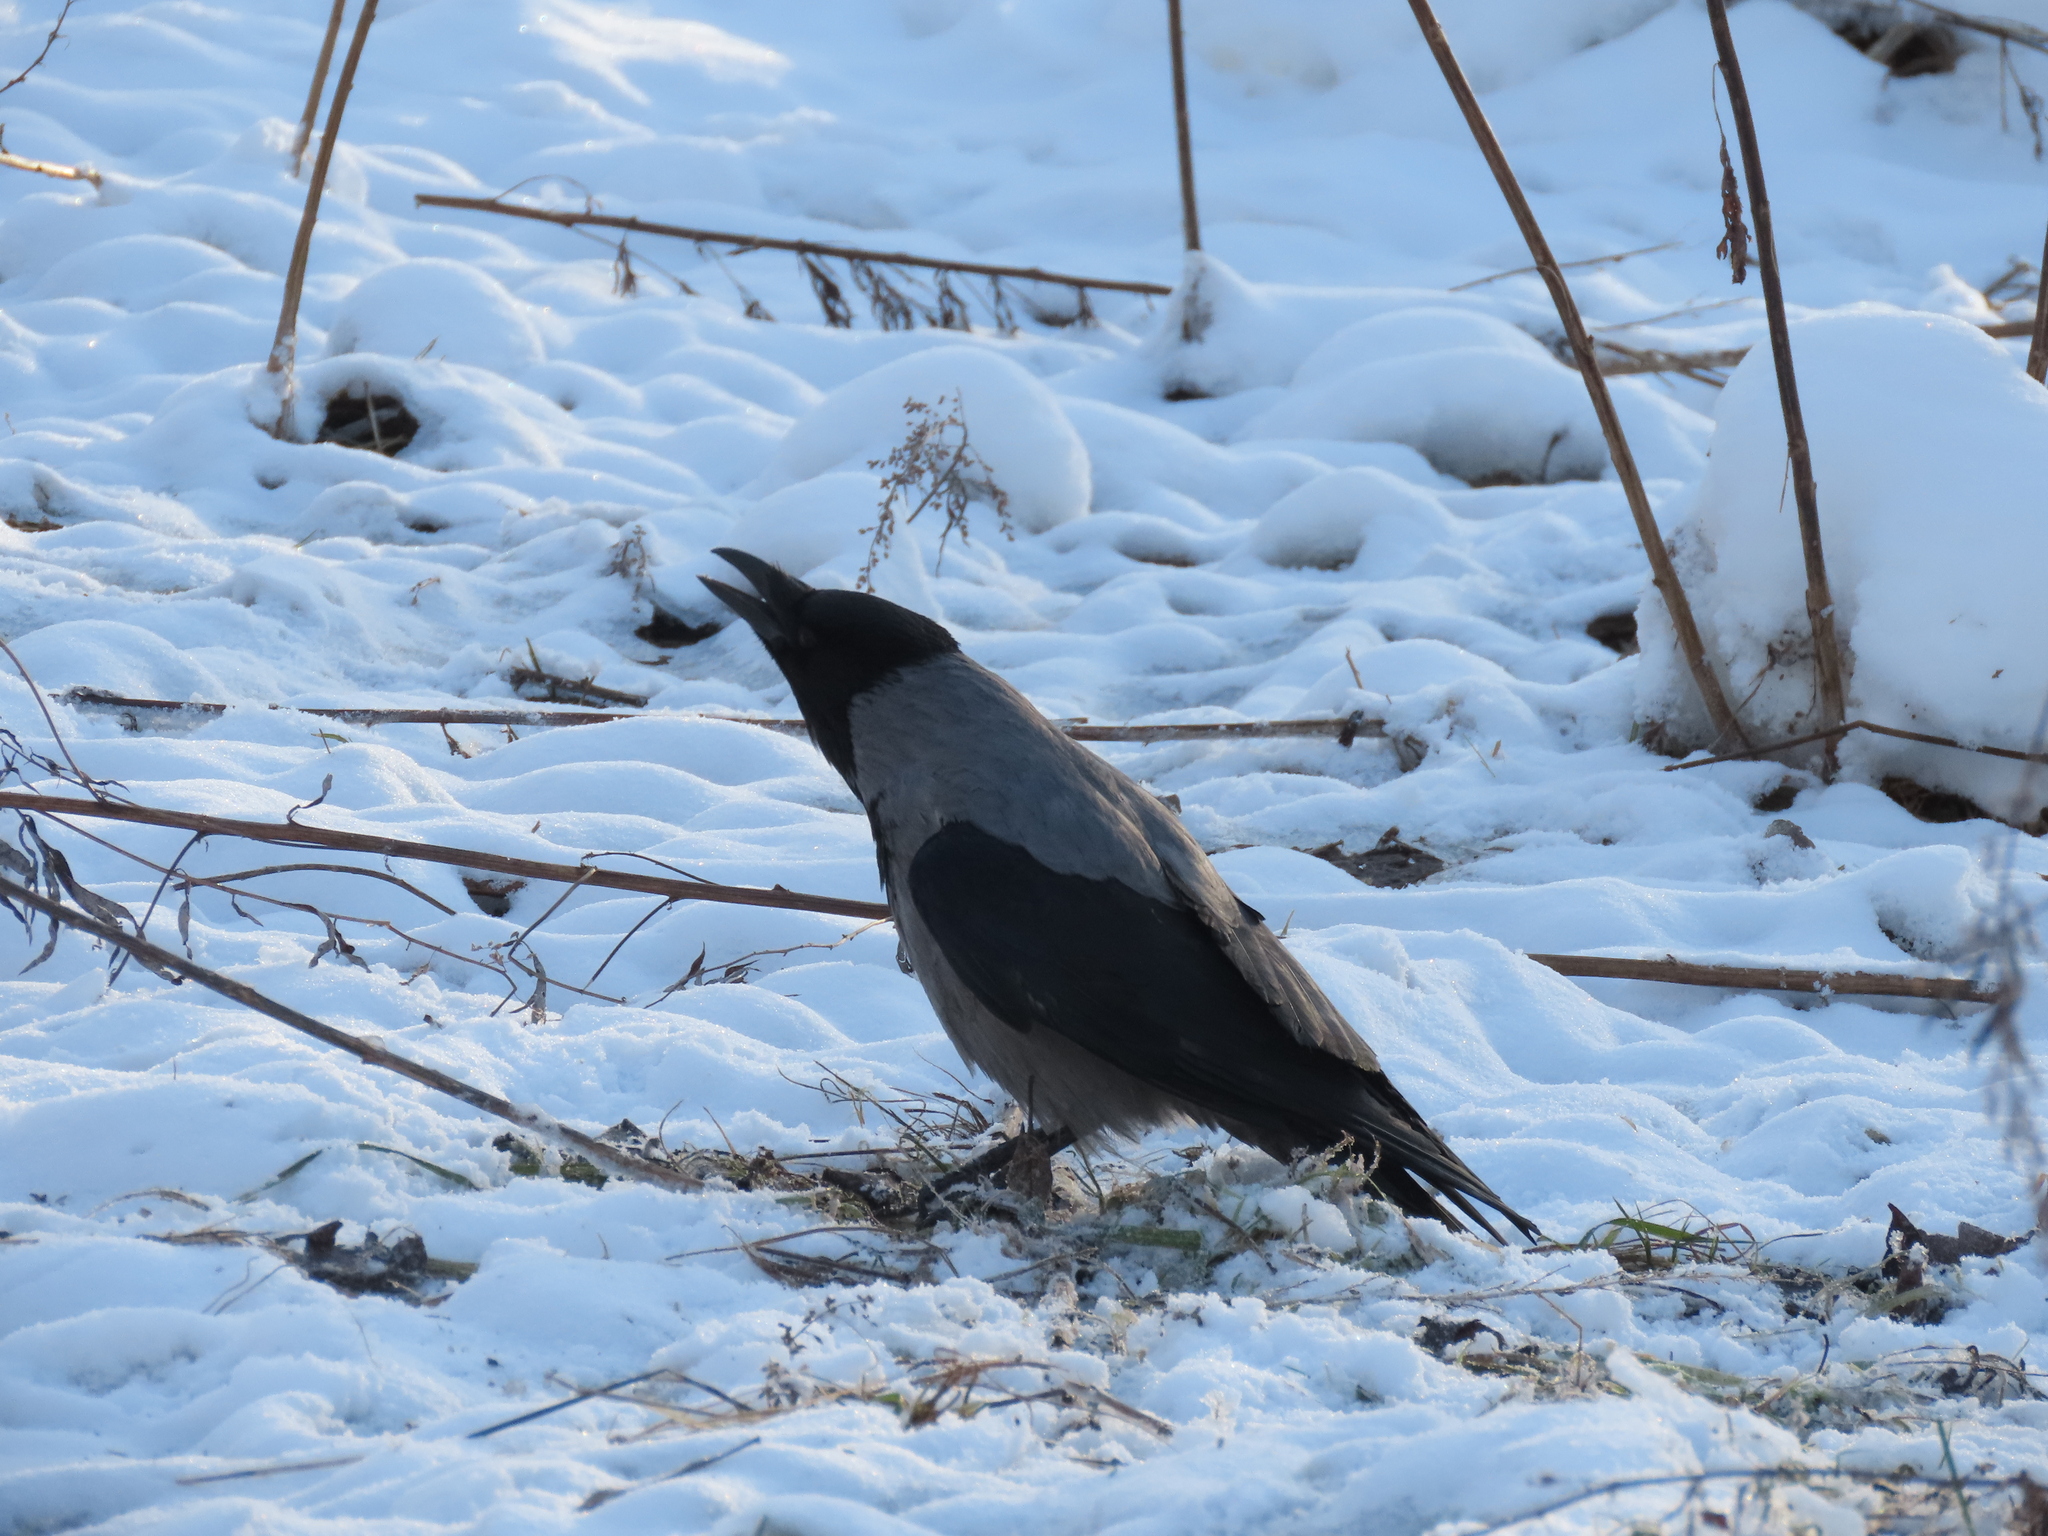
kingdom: Animalia
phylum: Chordata
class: Aves
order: Passeriformes
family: Corvidae
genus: Corvus
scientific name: Corvus cornix
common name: Hooded crow
